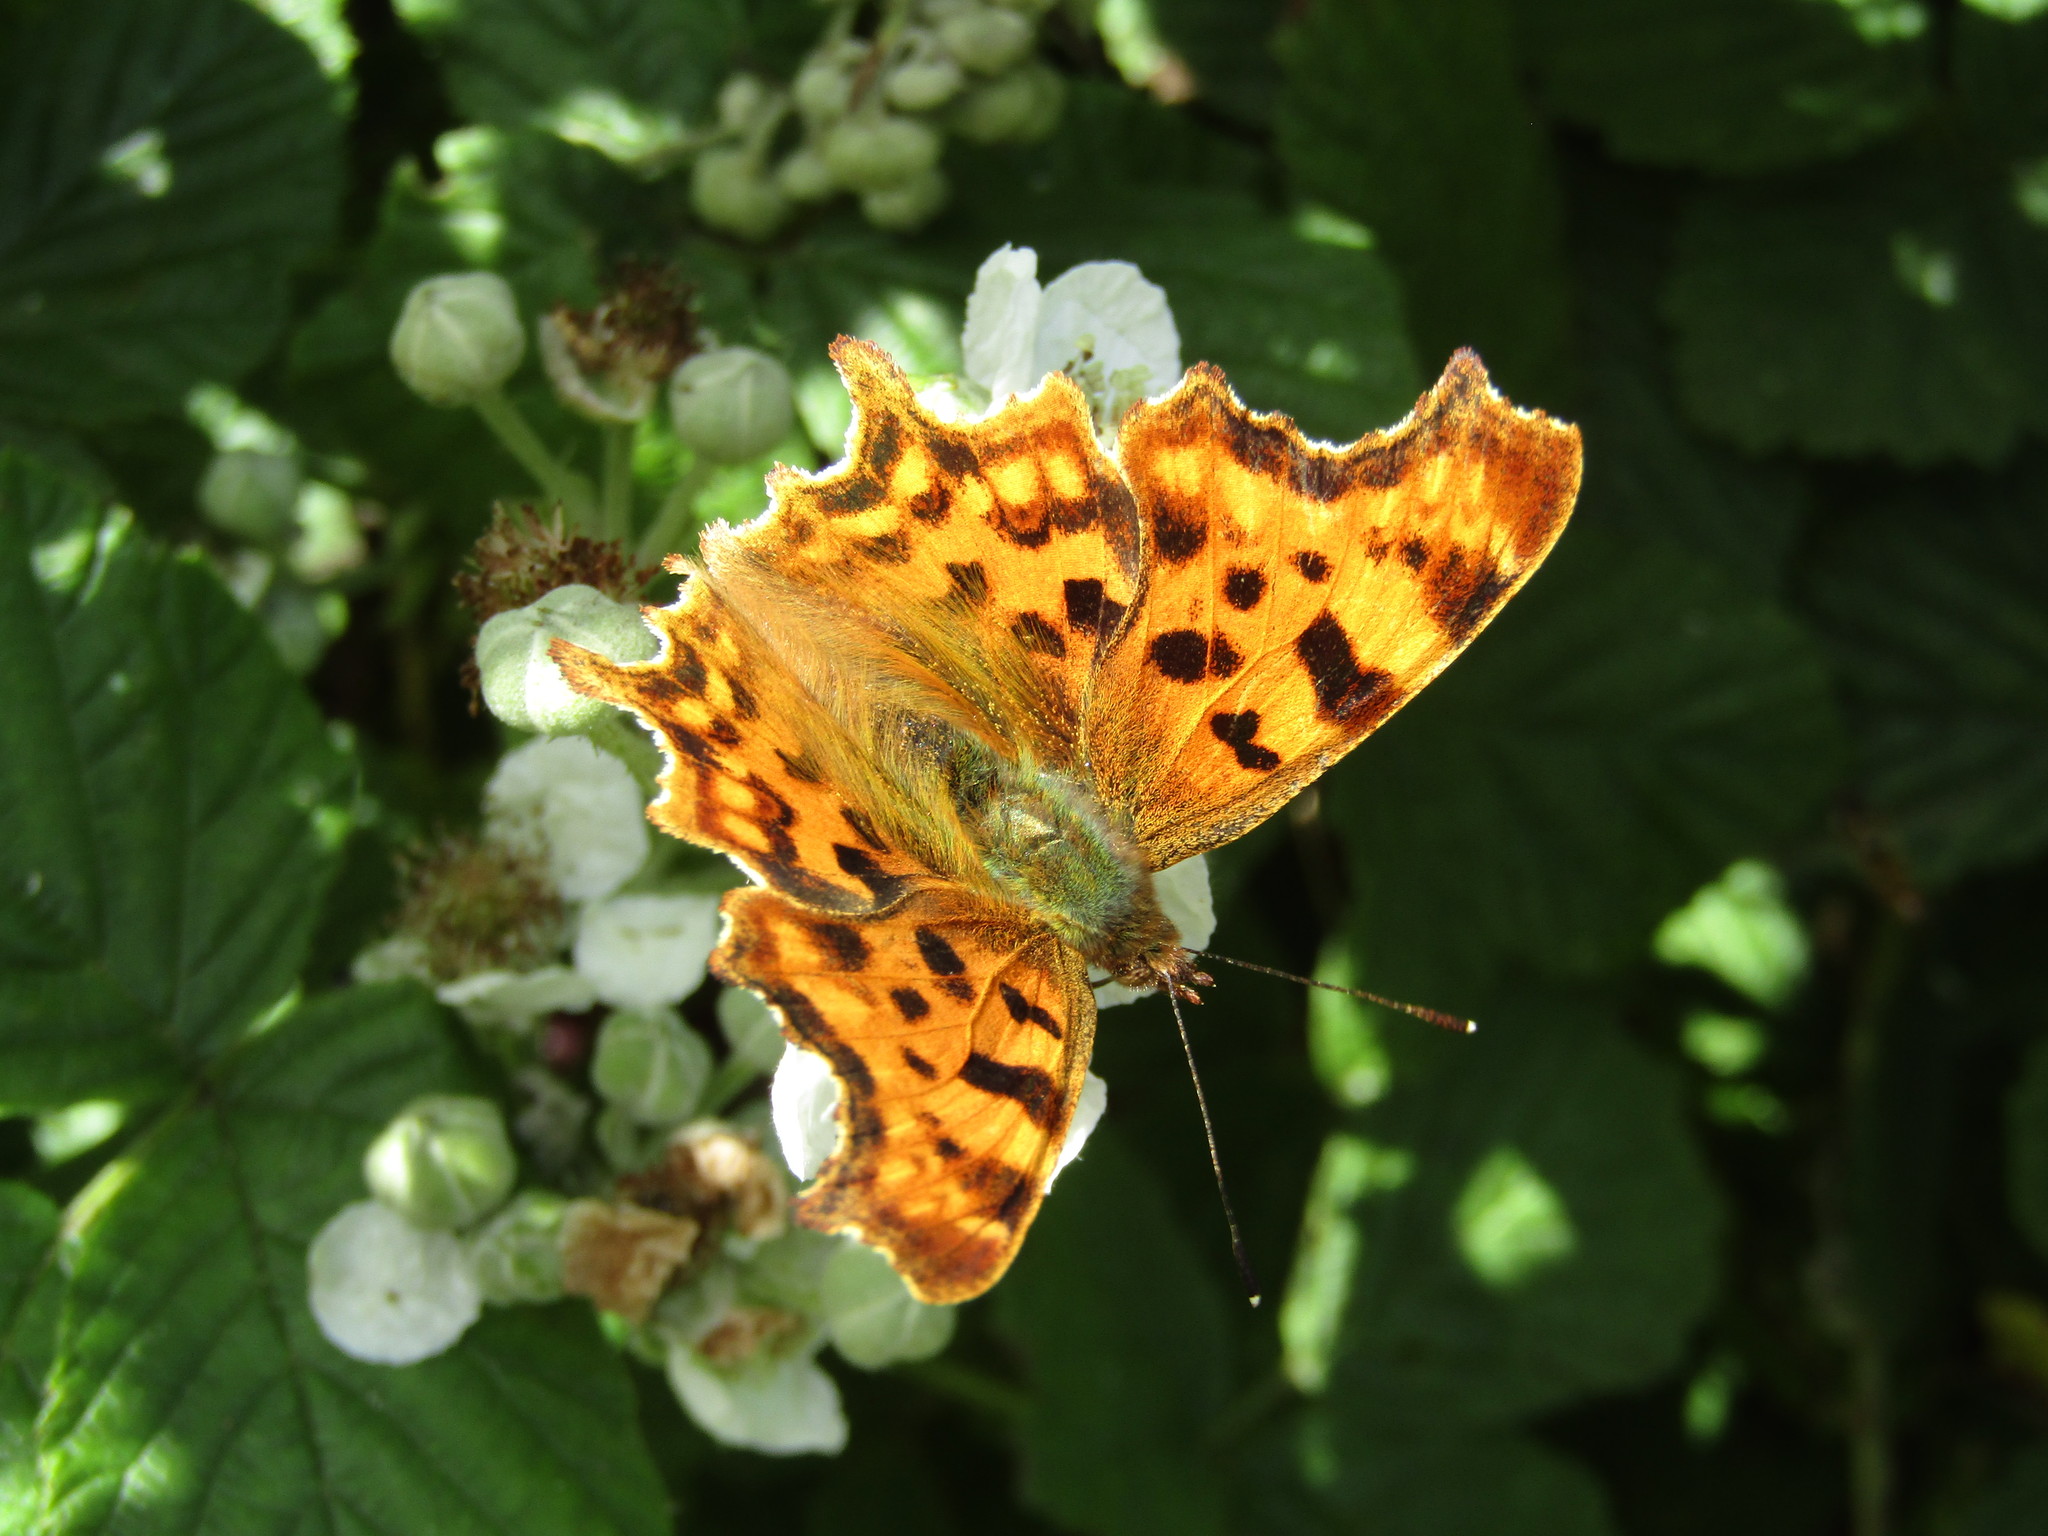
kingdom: Animalia
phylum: Arthropoda
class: Insecta
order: Lepidoptera
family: Nymphalidae
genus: Polygonia
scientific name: Polygonia c-album
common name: Comma
